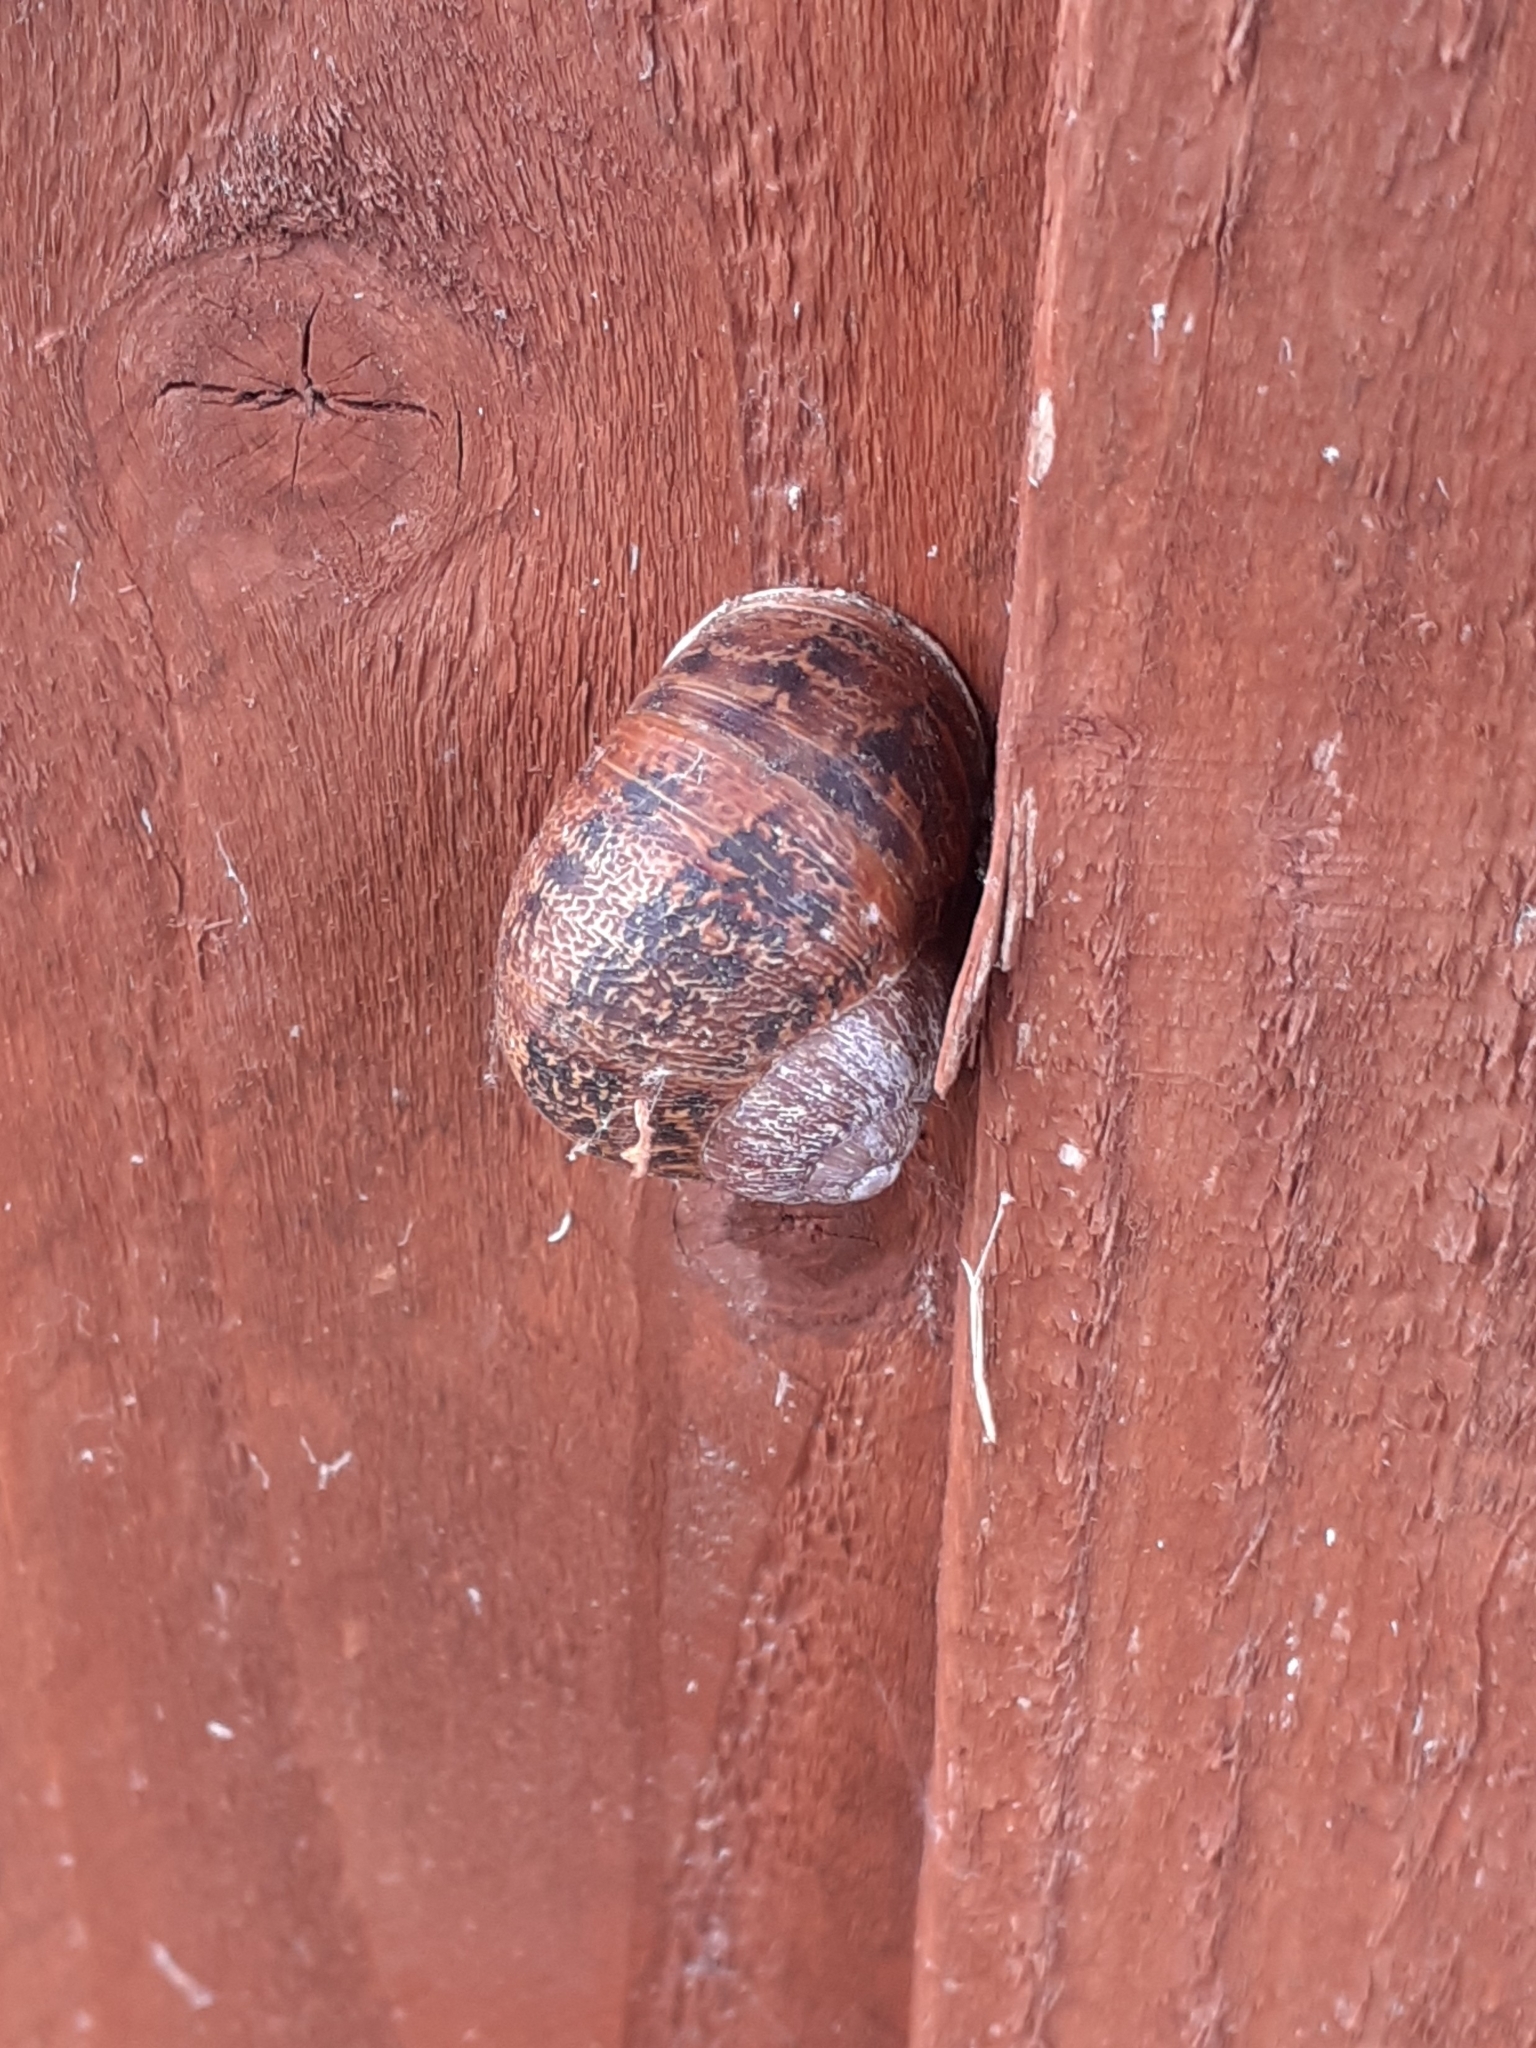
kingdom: Animalia
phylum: Mollusca
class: Gastropoda
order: Stylommatophora
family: Helicidae
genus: Cornu
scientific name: Cornu aspersum
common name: Brown garden snail
